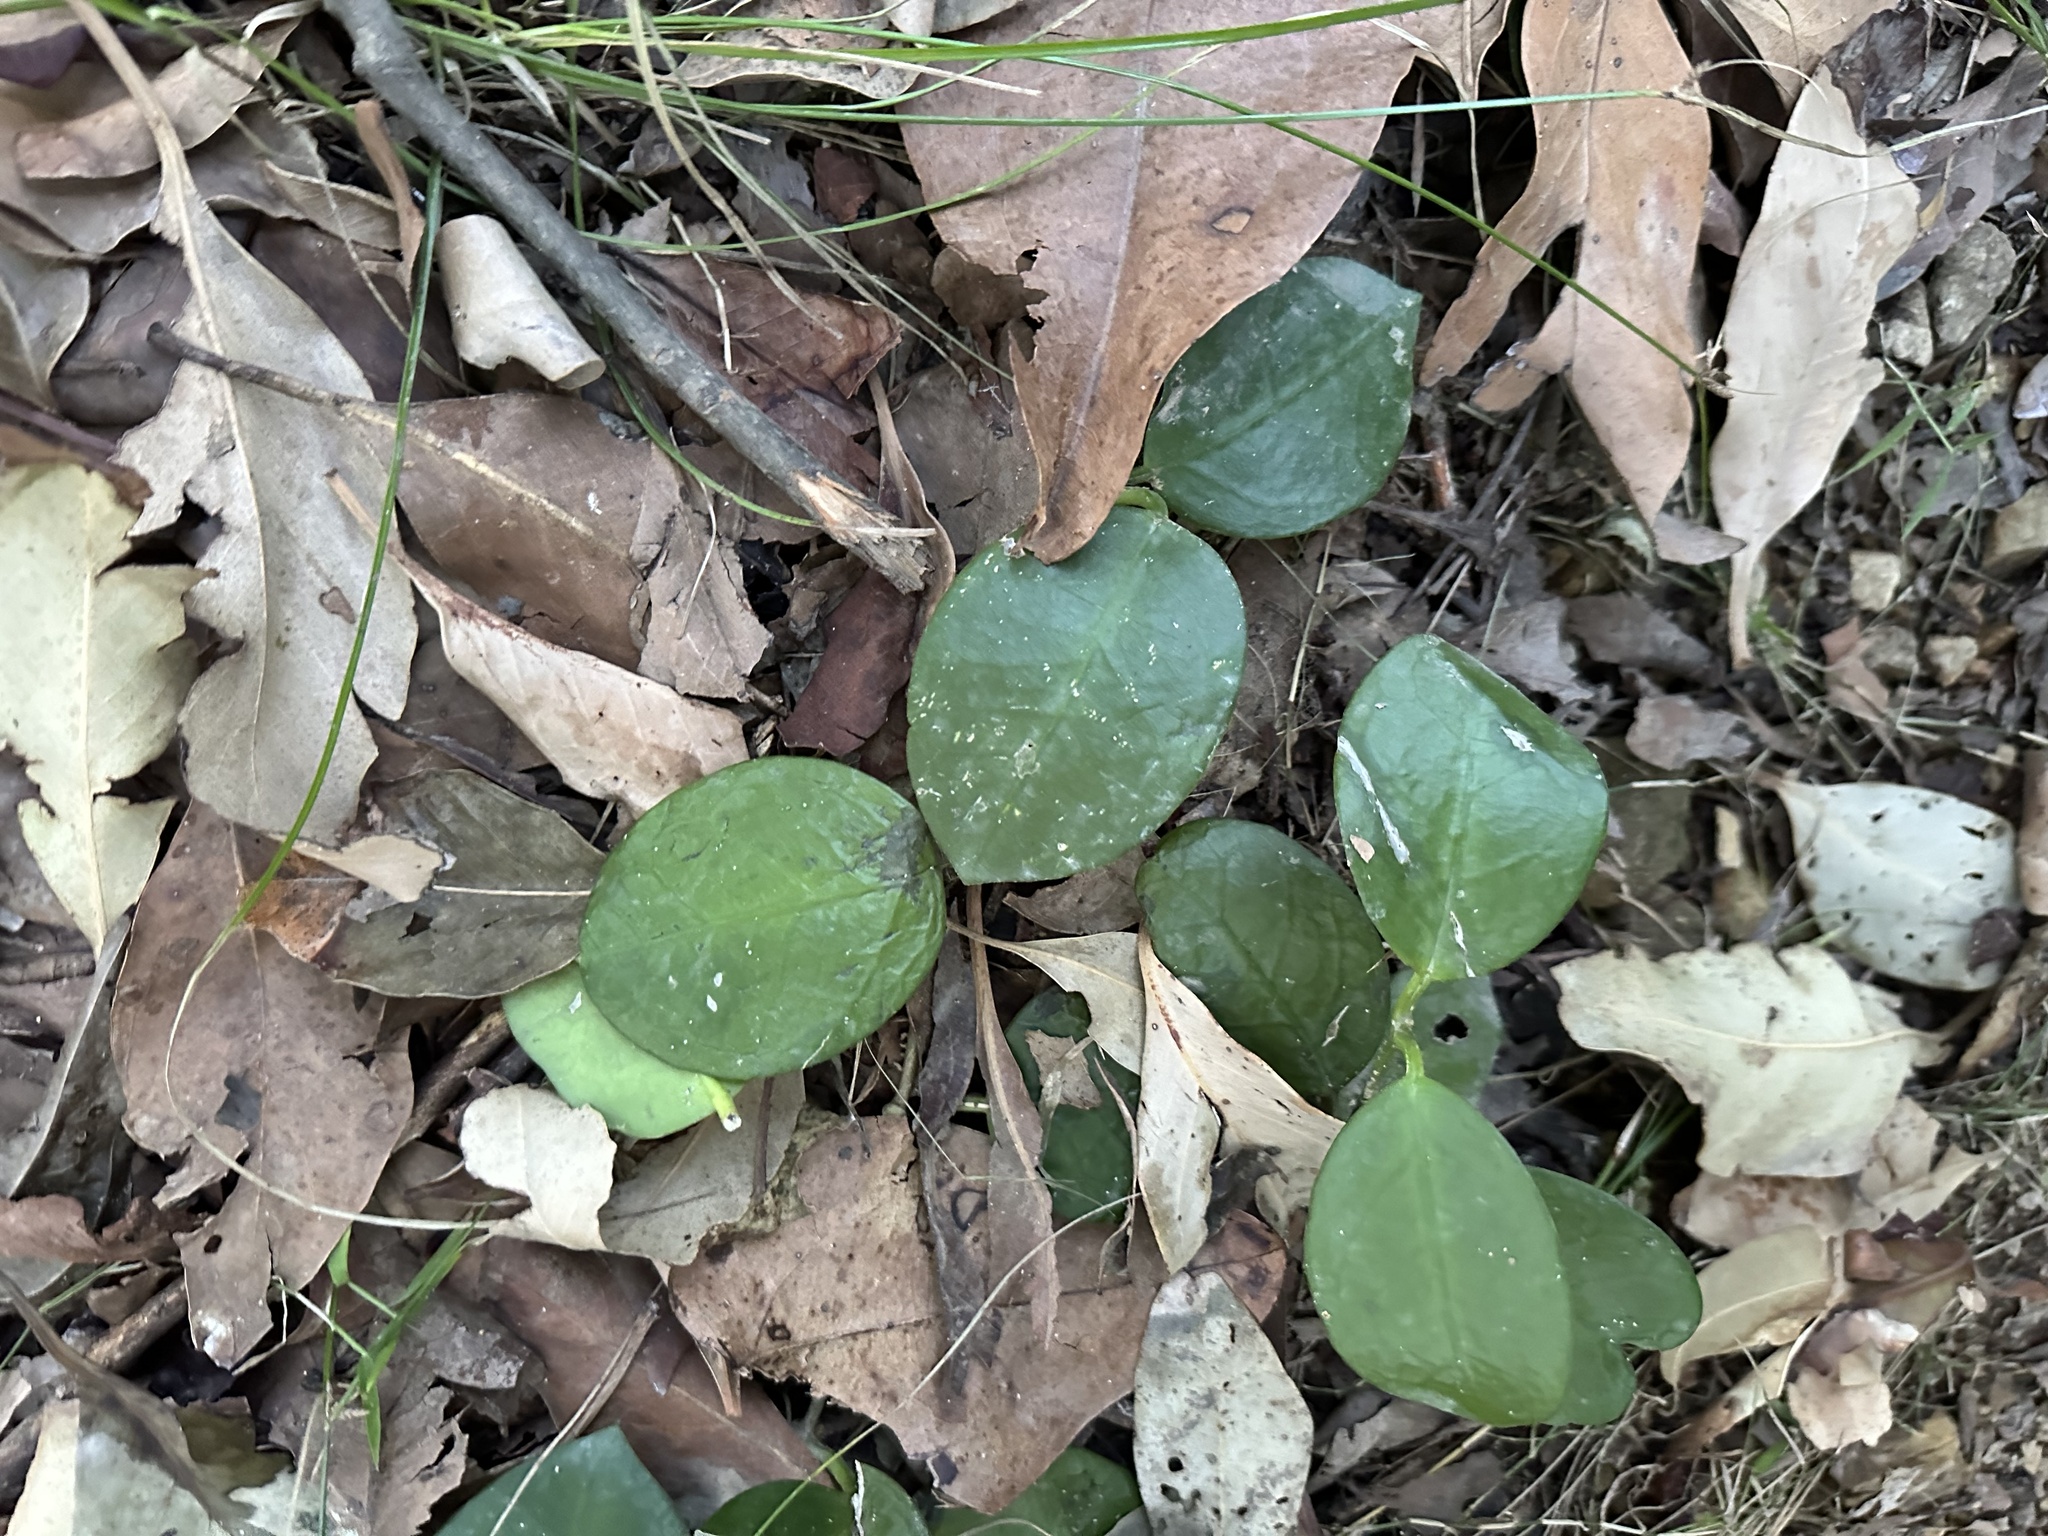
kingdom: Plantae
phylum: Tracheophyta
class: Magnoliopsida
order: Gentianales
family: Apocynaceae
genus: Hoya
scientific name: Hoya australis
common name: Wax flower
